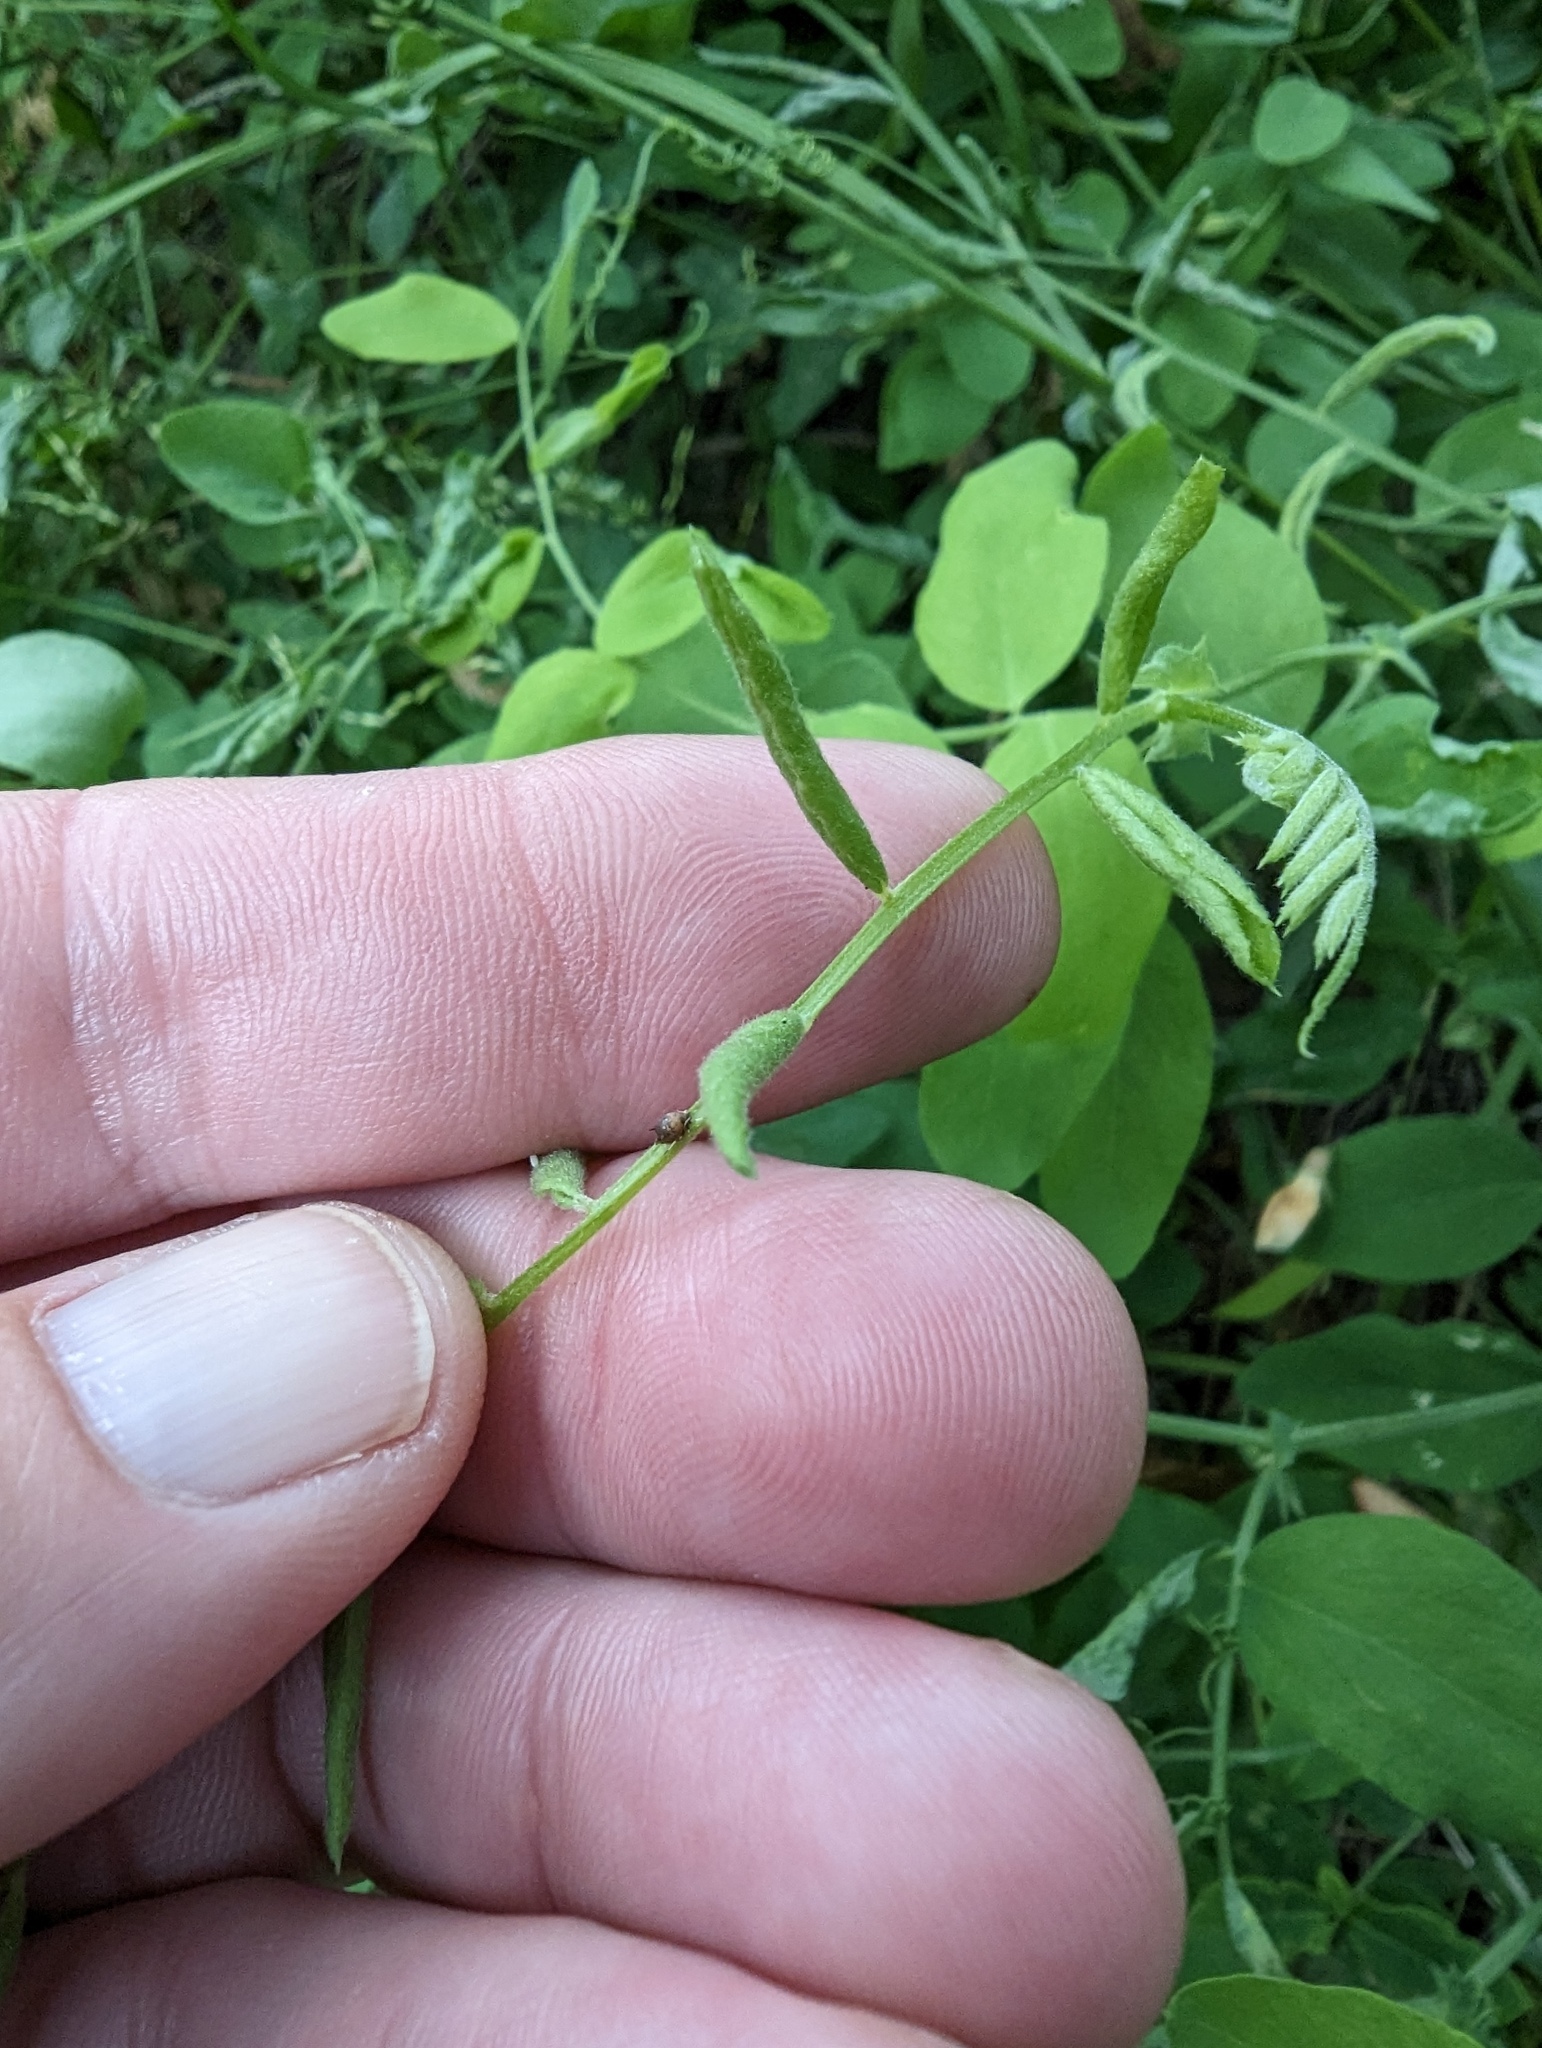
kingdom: Plantae
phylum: Tracheophyta
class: Magnoliopsida
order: Fabales
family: Fabaceae
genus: Lathyrus
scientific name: Lathyrus vestitus
